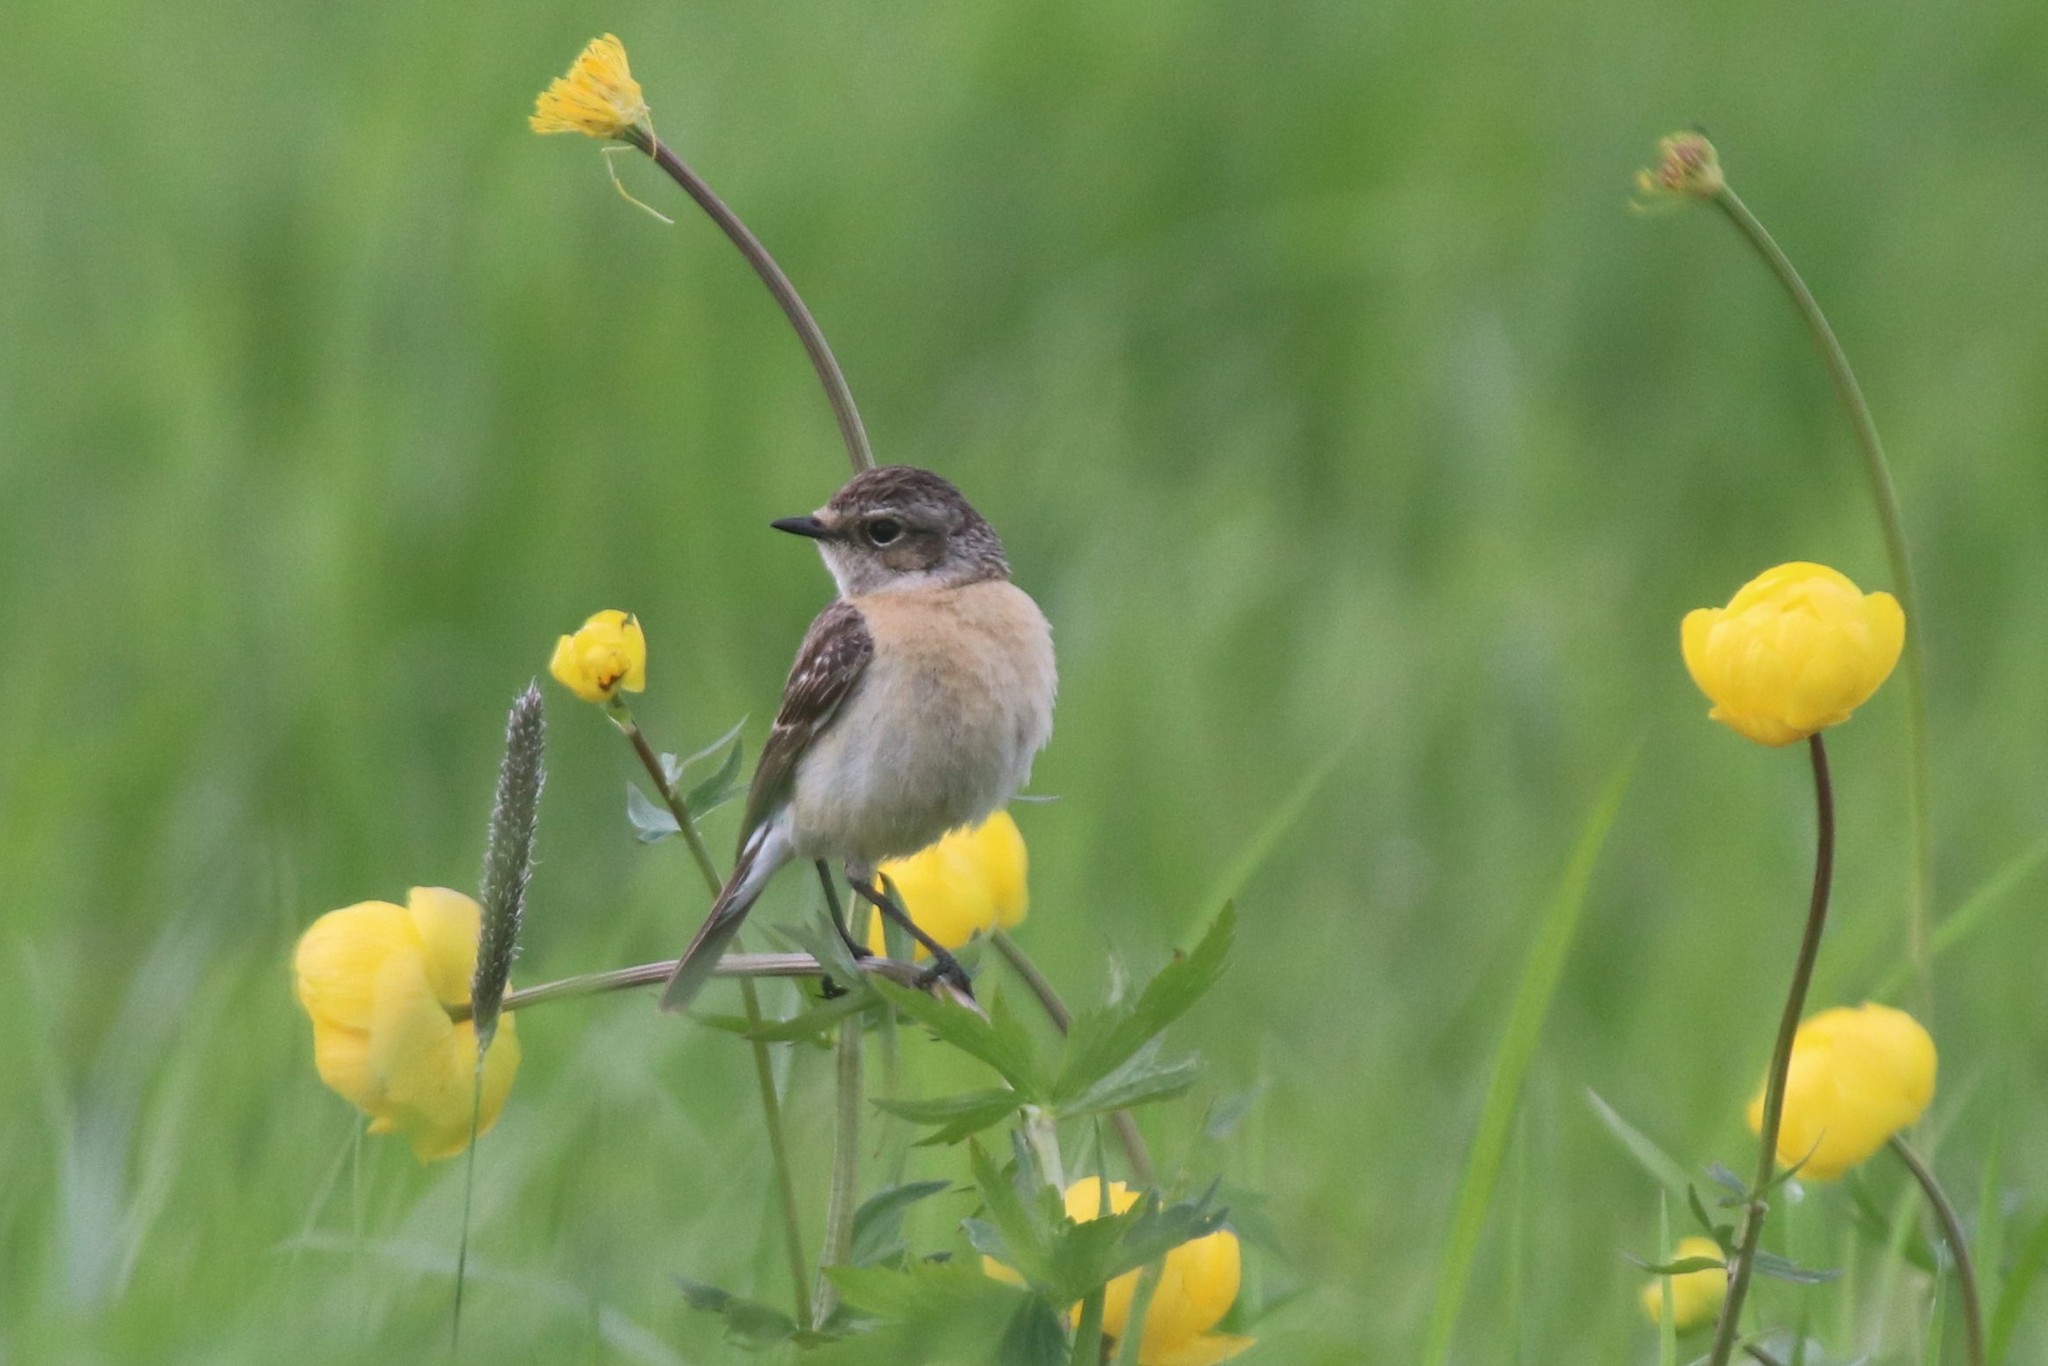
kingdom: Animalia
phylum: Chordata
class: Aves
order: Passeriformes
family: Muscicapidae
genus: Saxicola
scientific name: Saxicola maurus
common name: Siberian stonechat
